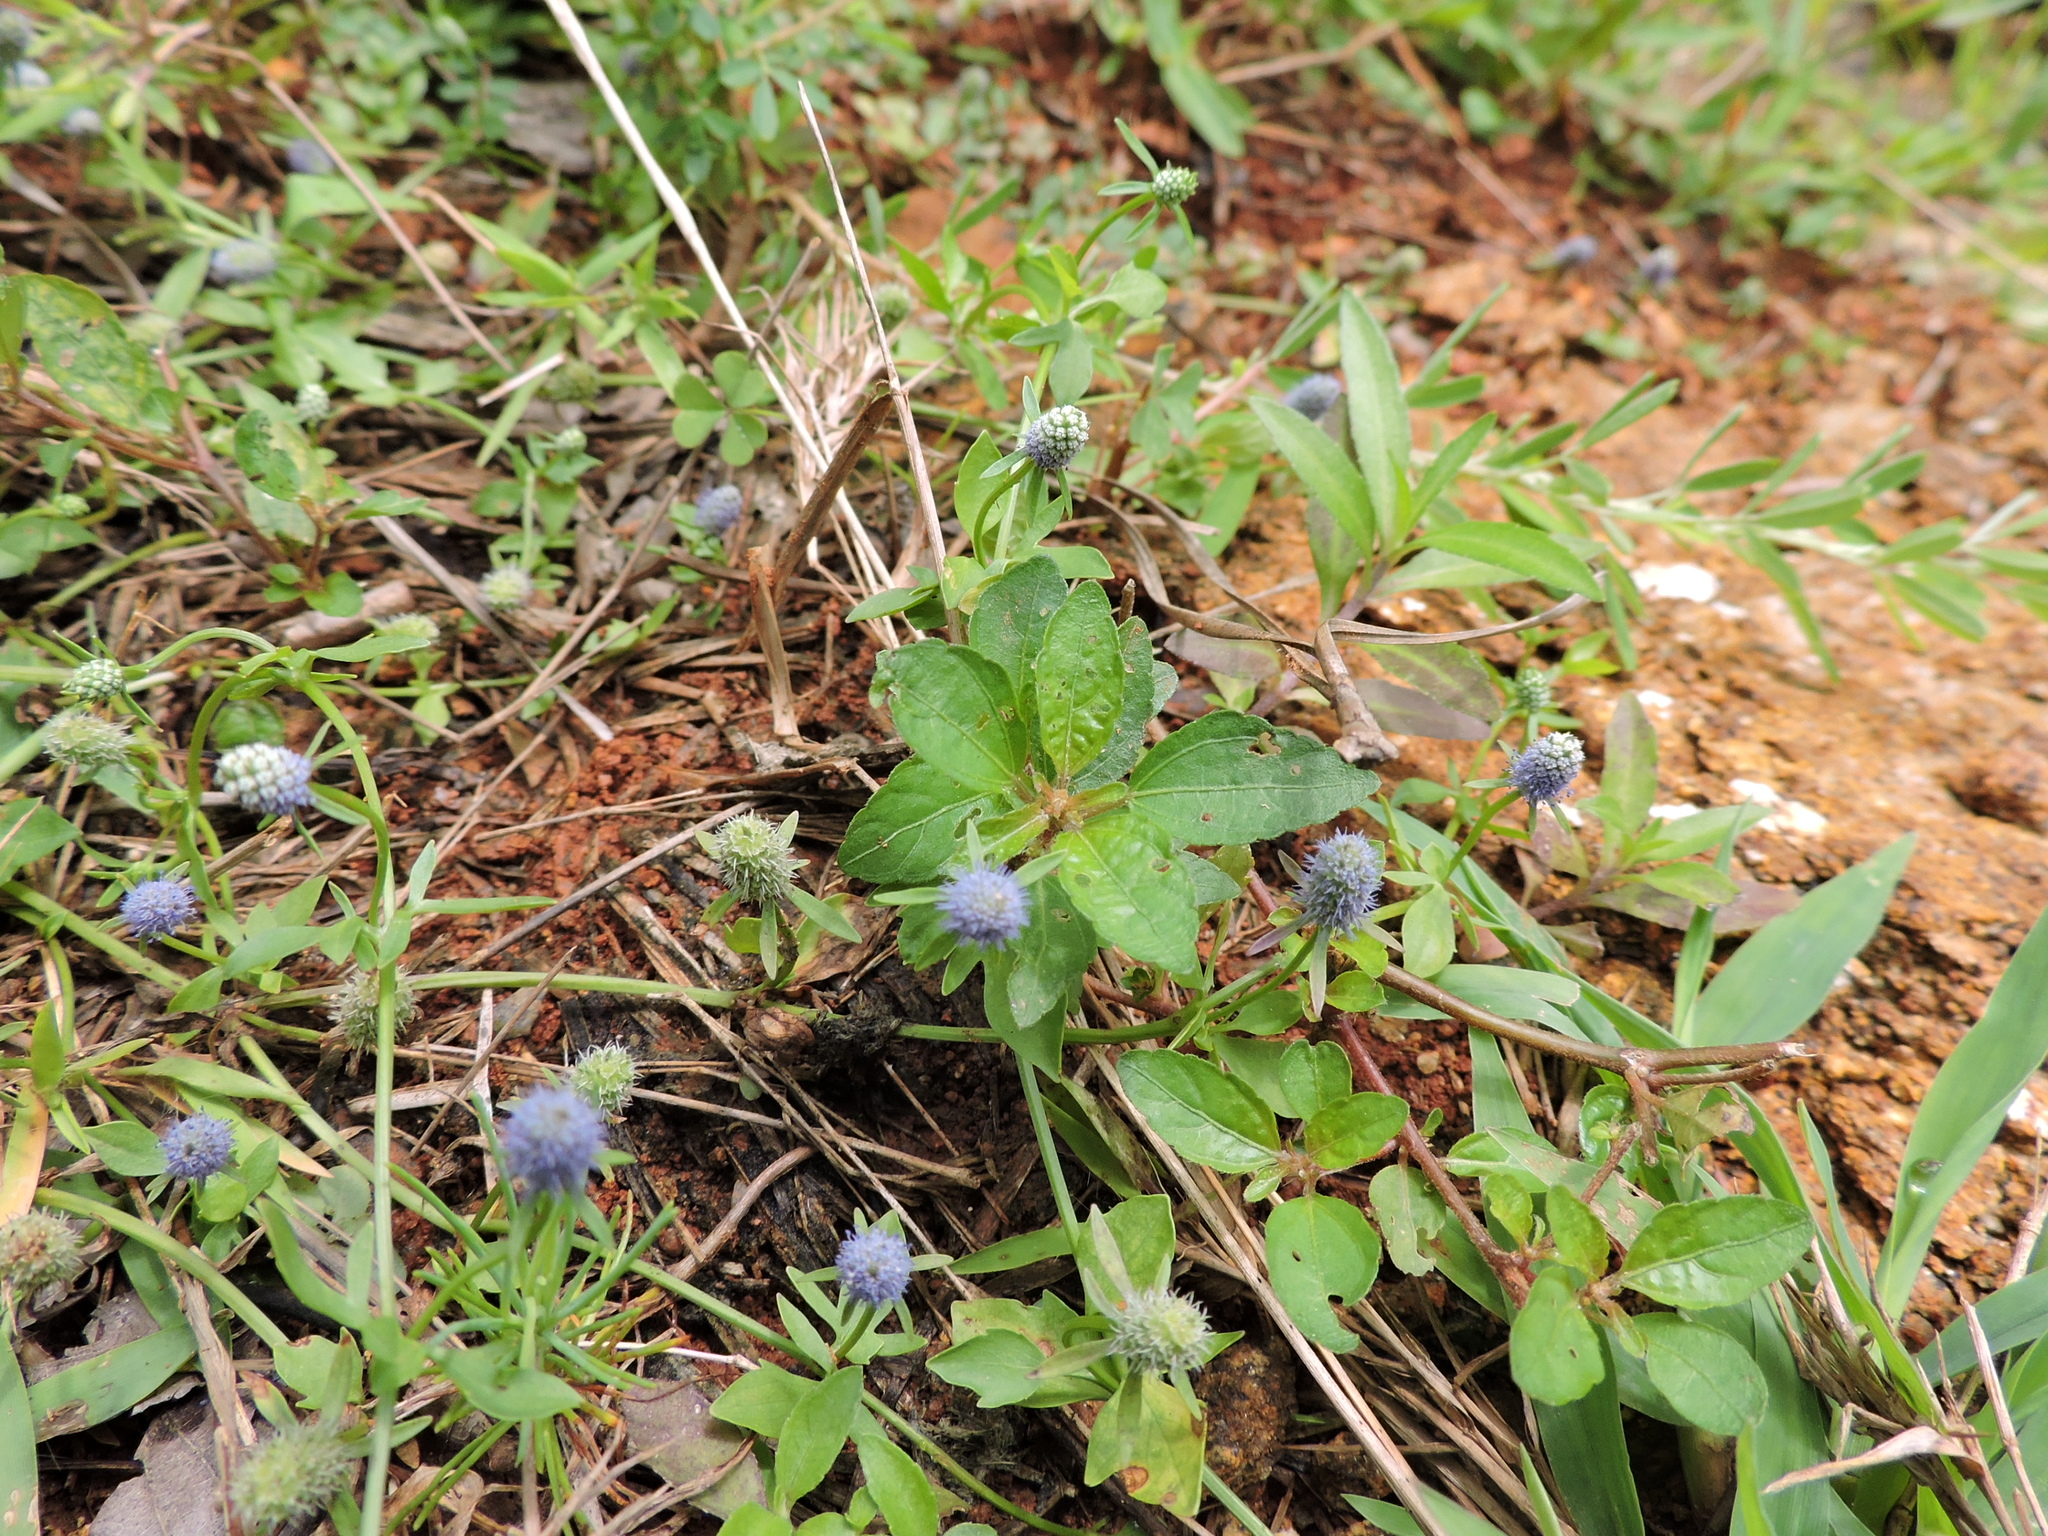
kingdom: Plantae
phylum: Tracheophyta
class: Magnoliopsida
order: Apiales
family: Apiaceae
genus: Eryngium
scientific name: Eryngium prostratum
